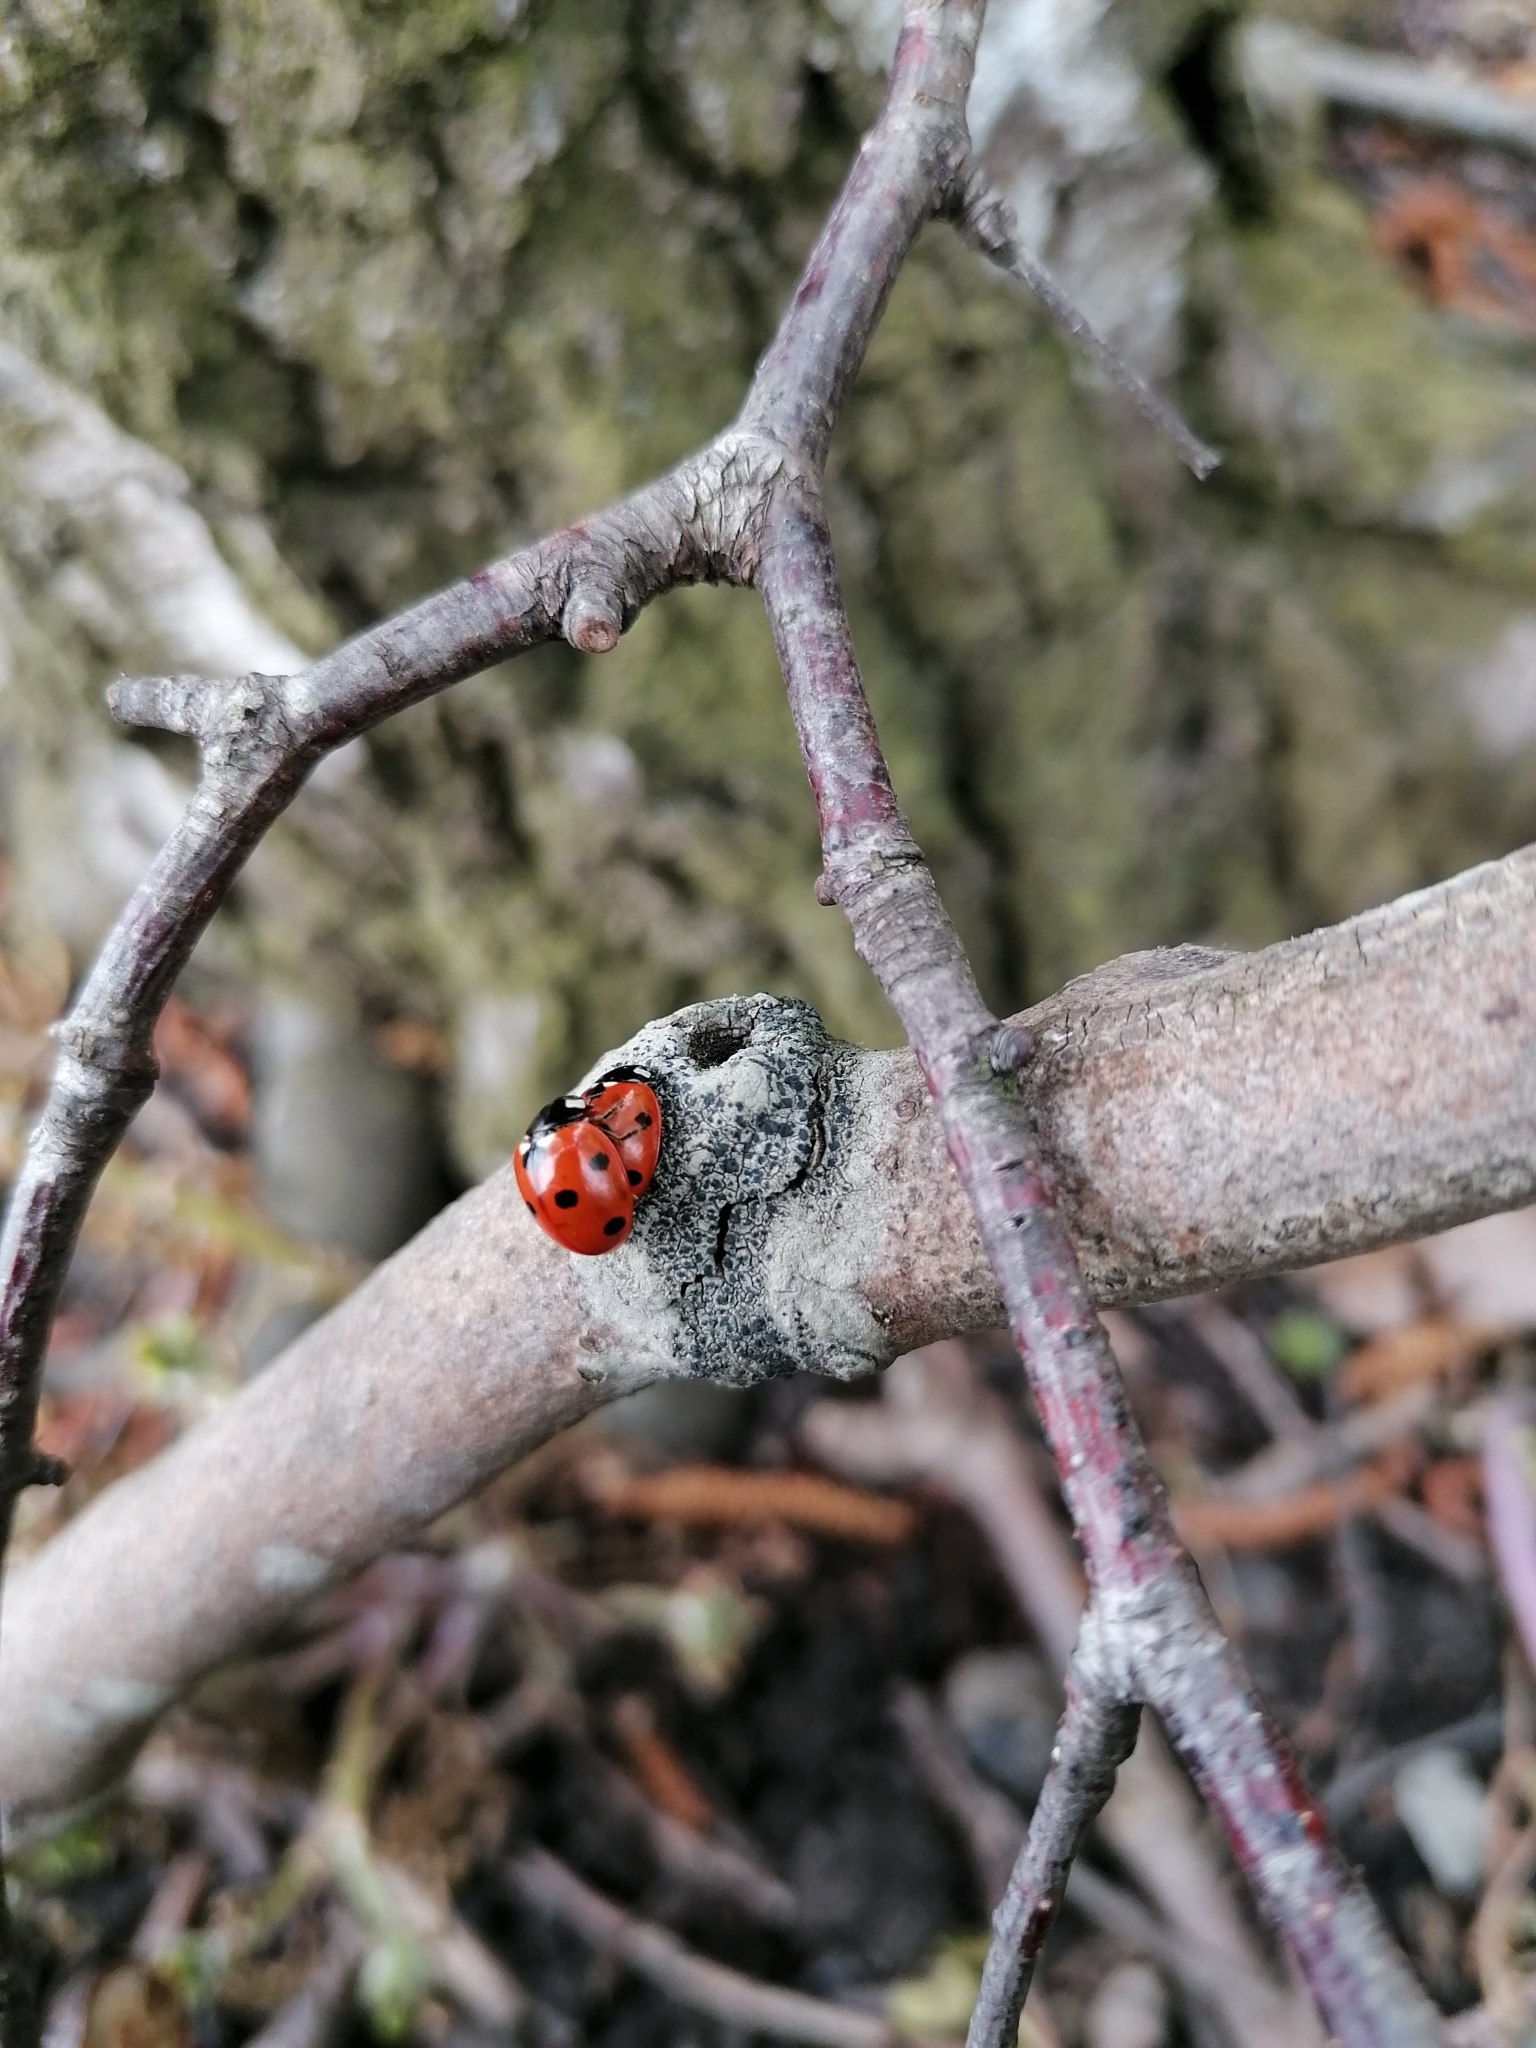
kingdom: Animalia
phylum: Arthropoda
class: Insecta
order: Coleoptera
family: Coccinellidae
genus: Coccinella
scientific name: Coccinella septempunctata
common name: Sevenspotted lady beetle
